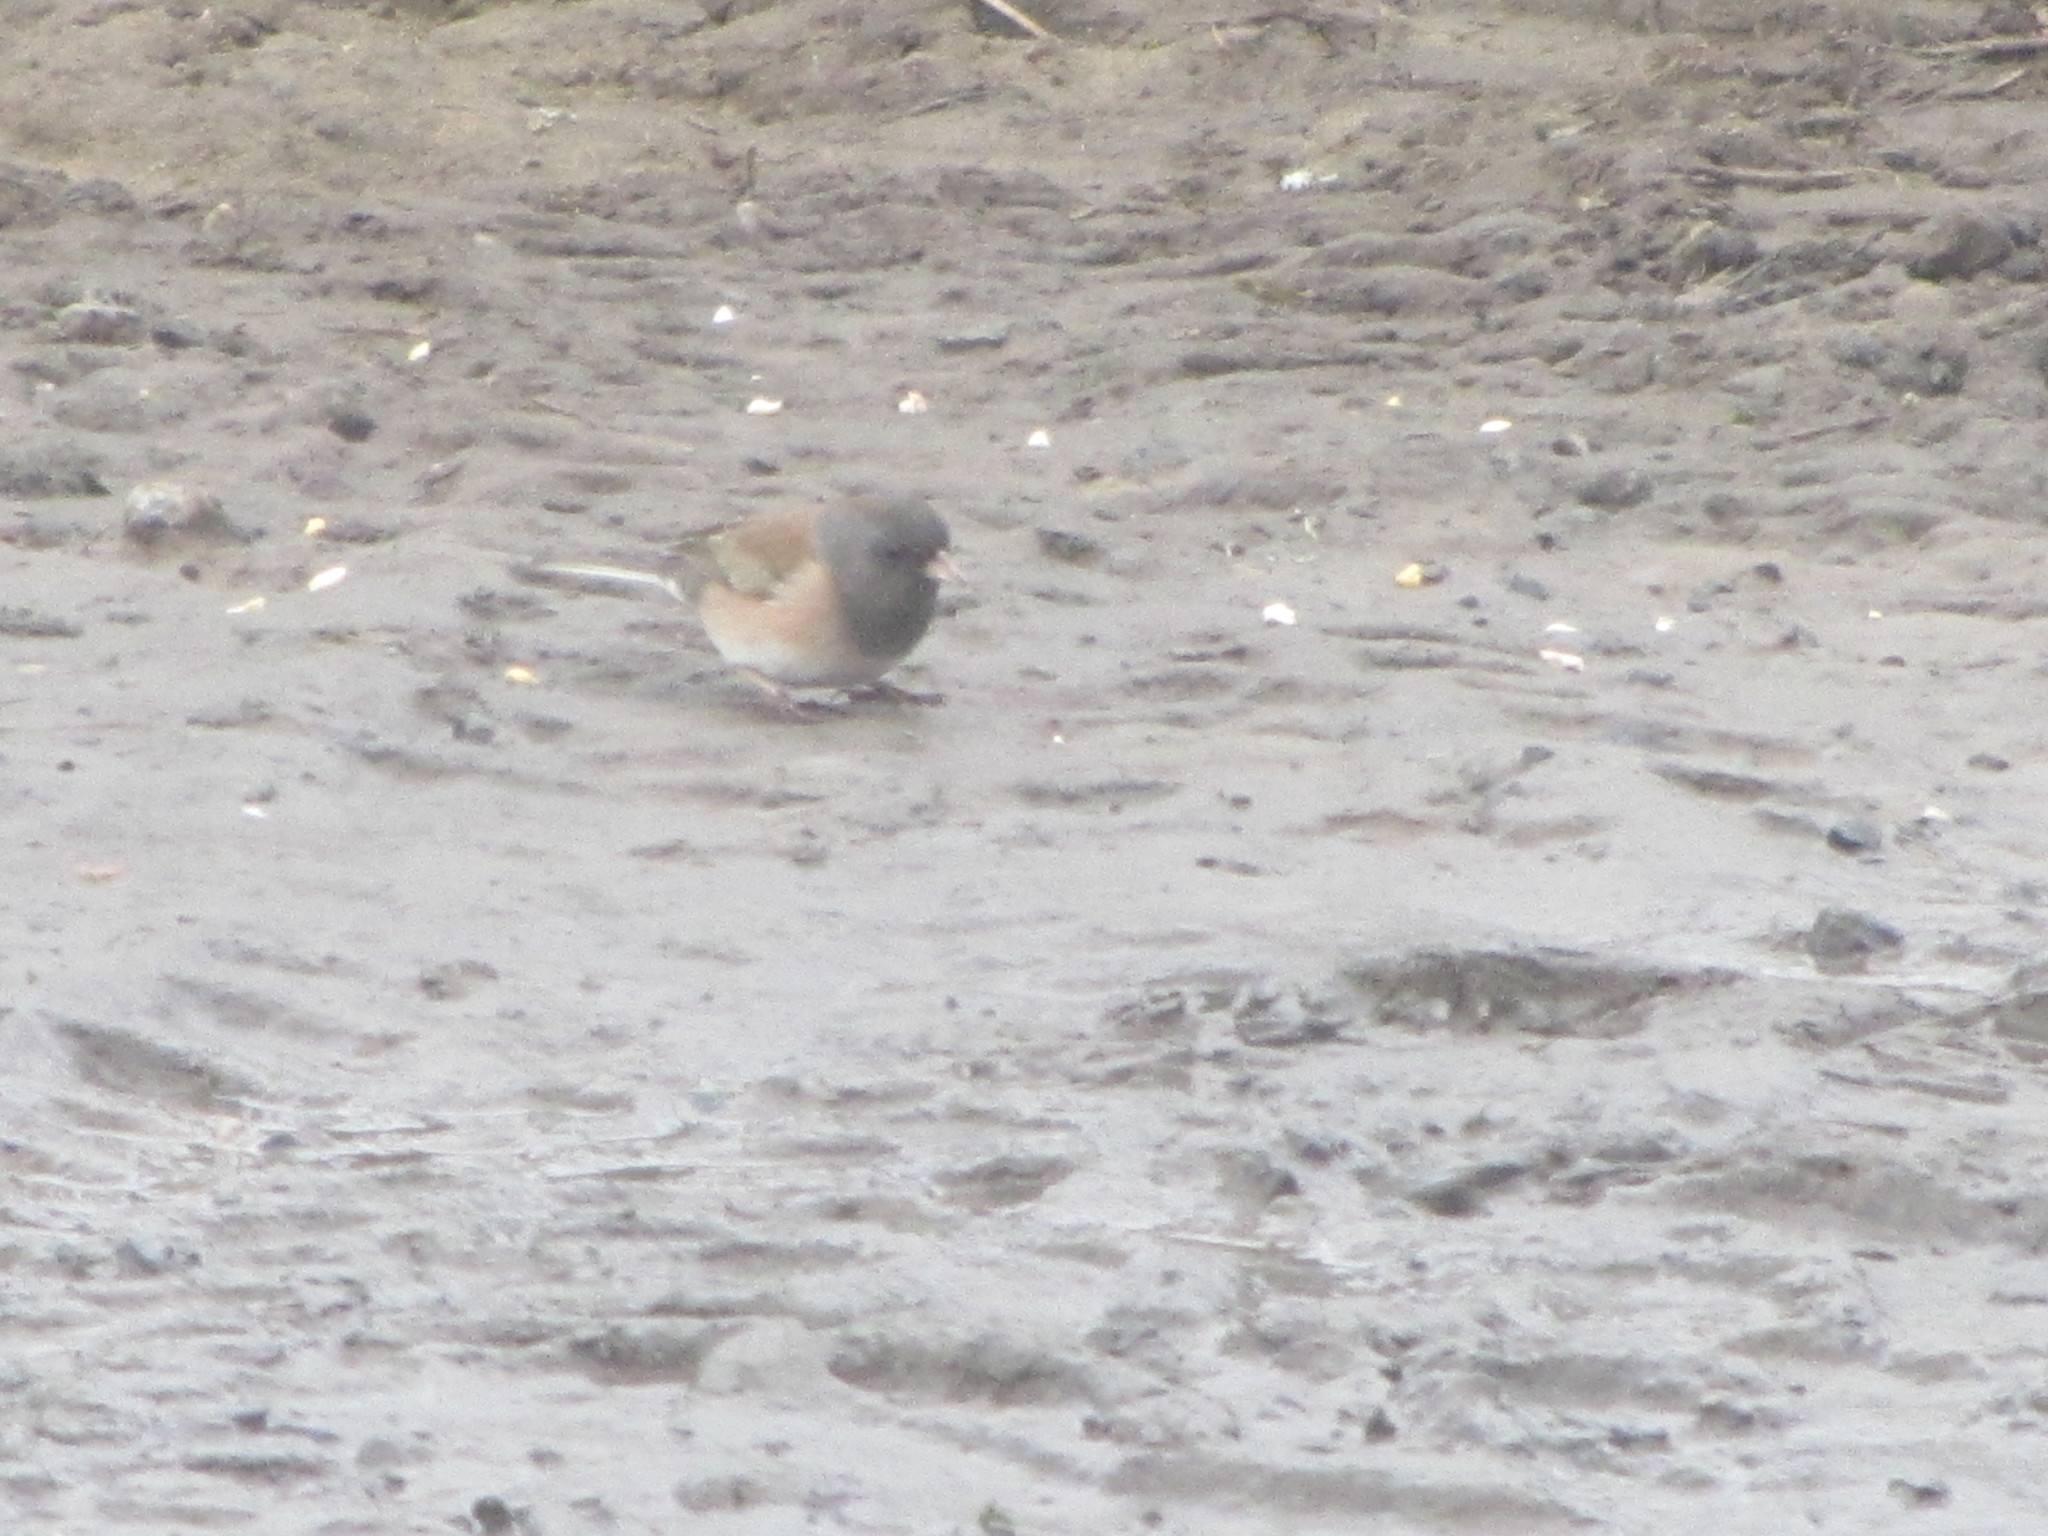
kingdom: Animalia
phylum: Chordata
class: Aves
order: Passeriformes
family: Passerellidae
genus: Junco
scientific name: Junco hyemalis
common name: Dark-eyed junco
